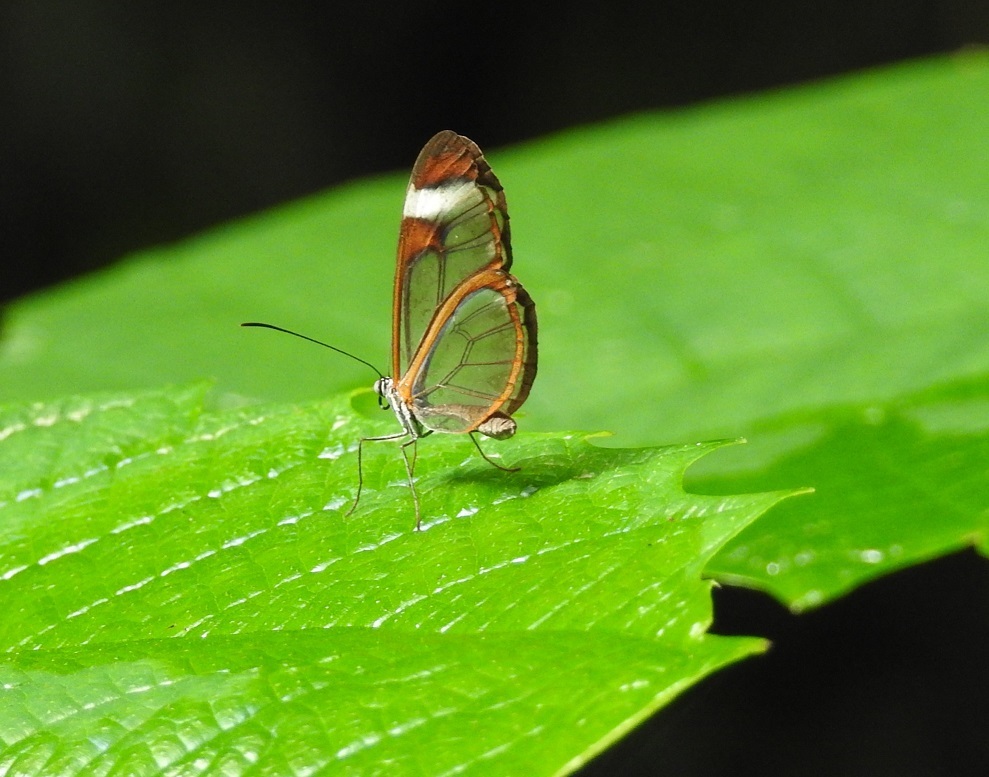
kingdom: Animalia
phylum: Arthropoda
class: Insecta
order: Lepidoptera
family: Nymphalidae
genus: Pteronymia
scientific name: Pteronymia cotytto
